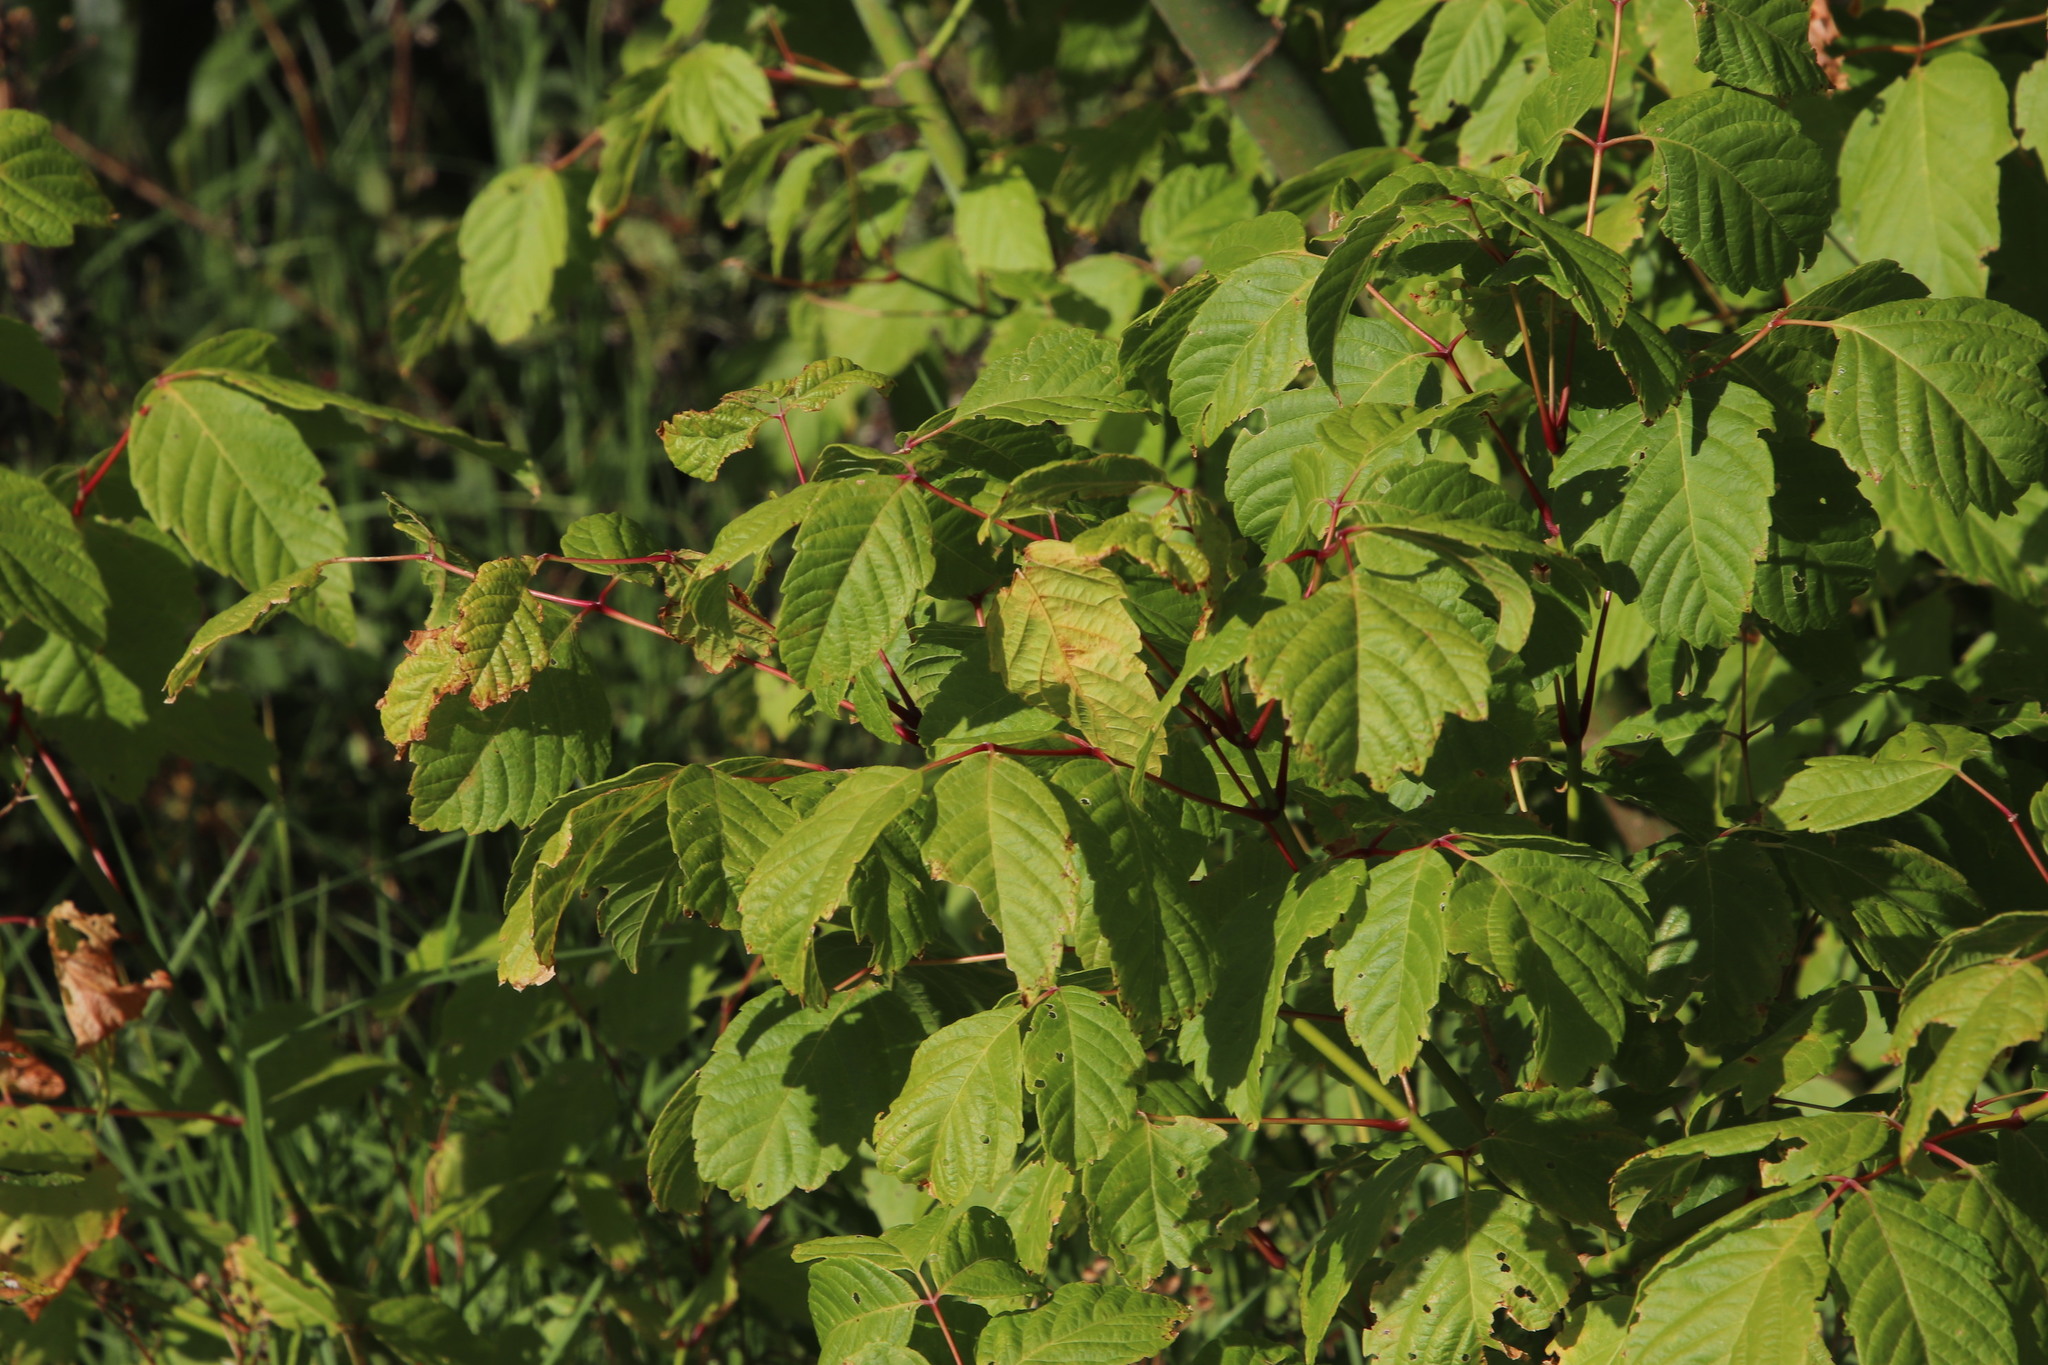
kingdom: Plantae
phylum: Tracheophyta
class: Magnoliopsida
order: Sapindales
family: Sapindaceae
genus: Acer
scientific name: Acer negundo
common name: Ashleaf maple
